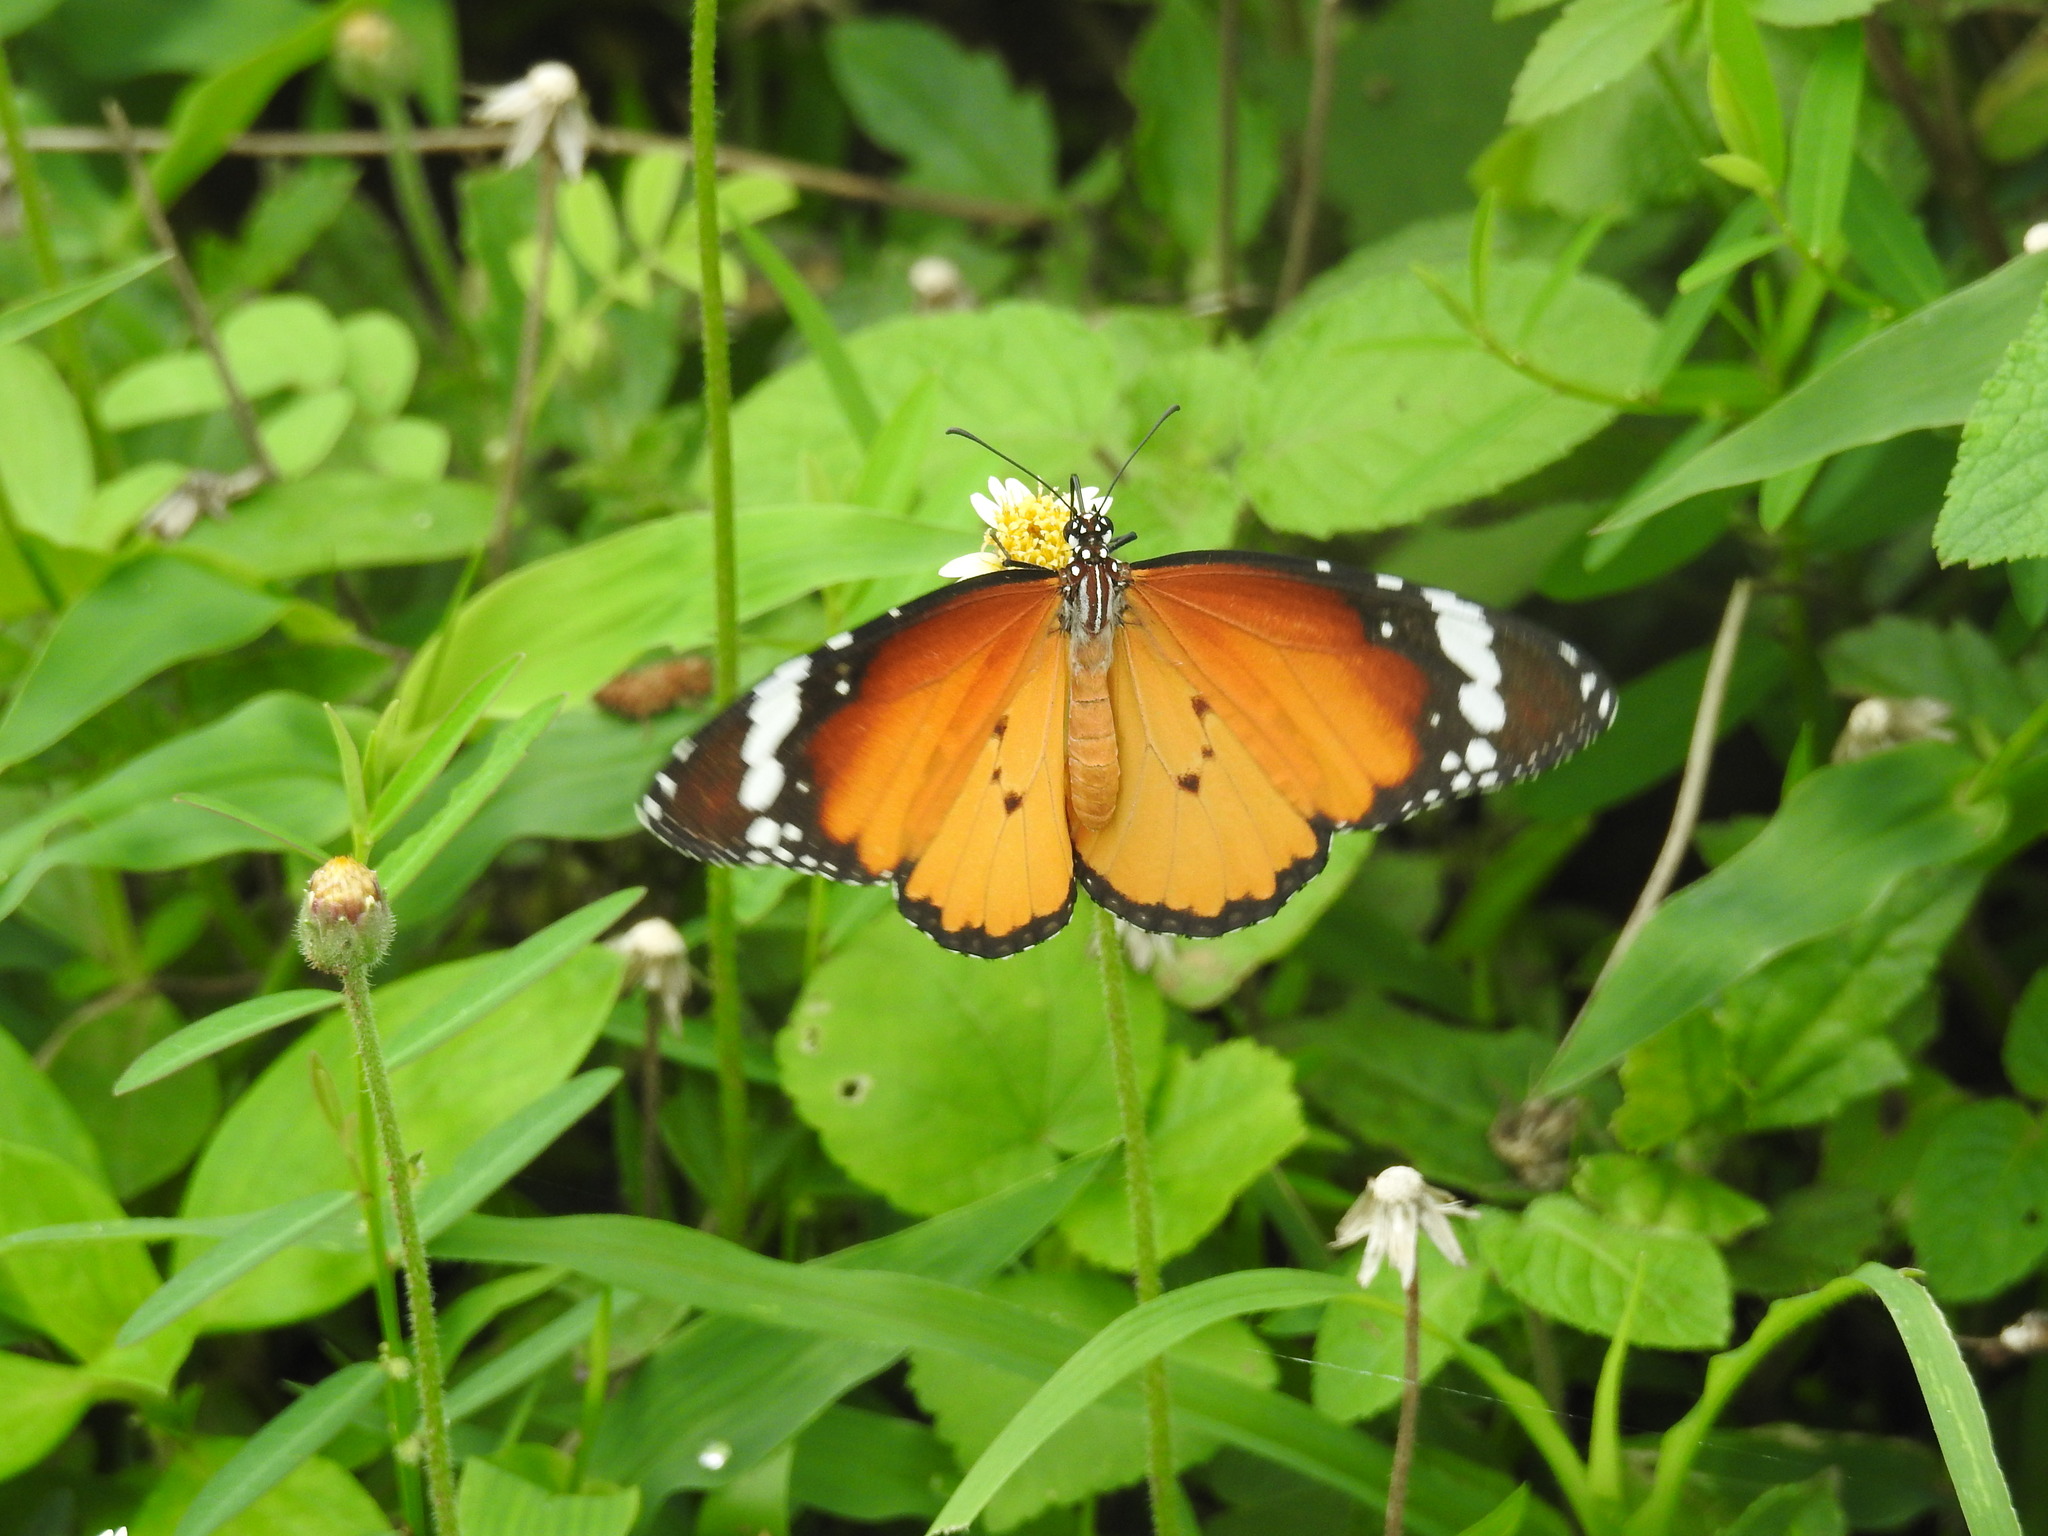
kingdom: Animalia
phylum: Arthropoda
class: Insecta
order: Lepidoptera
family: Nymphalidae
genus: Danaus
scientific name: Danaus chrysippus
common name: Plain tiger
